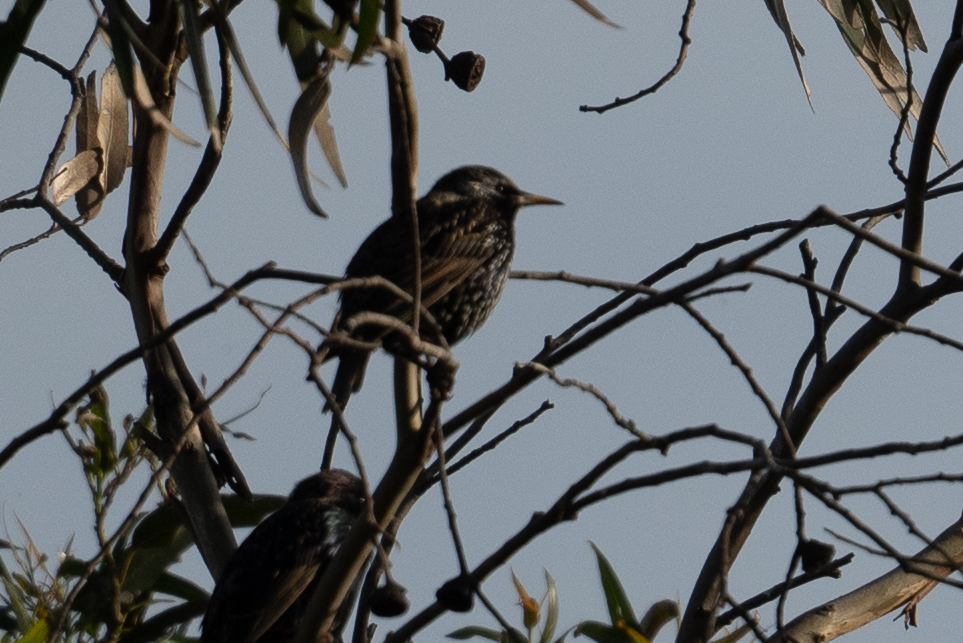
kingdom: Animalia
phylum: Chordata
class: Aves
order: Passeriformes
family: Sturnidae
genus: Sturnus
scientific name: Sturnus vulgaris
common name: Common starling
